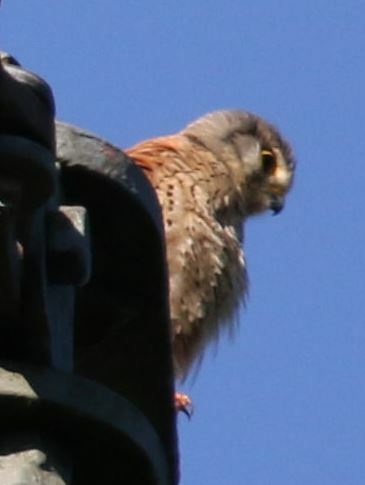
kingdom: Animalia
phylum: Chordata
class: Aves
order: Falconiformes
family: Falconidae
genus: Falco
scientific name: Falco tinnunculus
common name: Common kestrel
